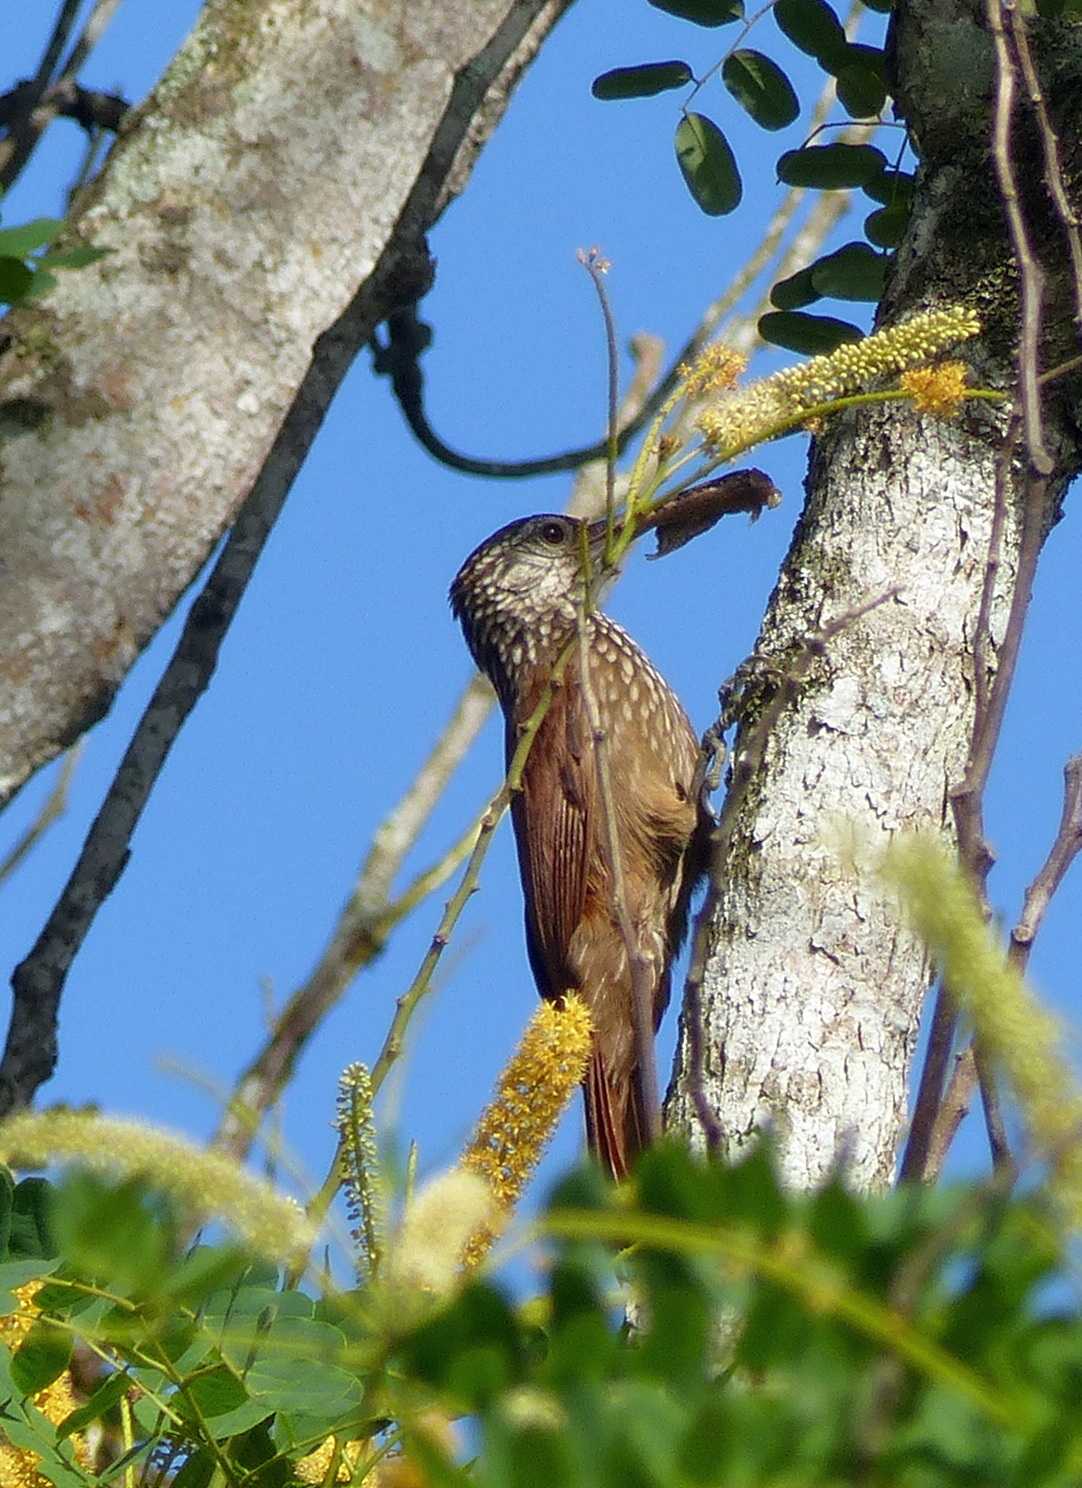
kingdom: Animalia
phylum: Chordata
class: Aves
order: Passeriformes
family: Furnariidae
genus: Xiphorhynchus
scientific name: Xiphorhynchus picus
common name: Straight-billed woodcreeper
